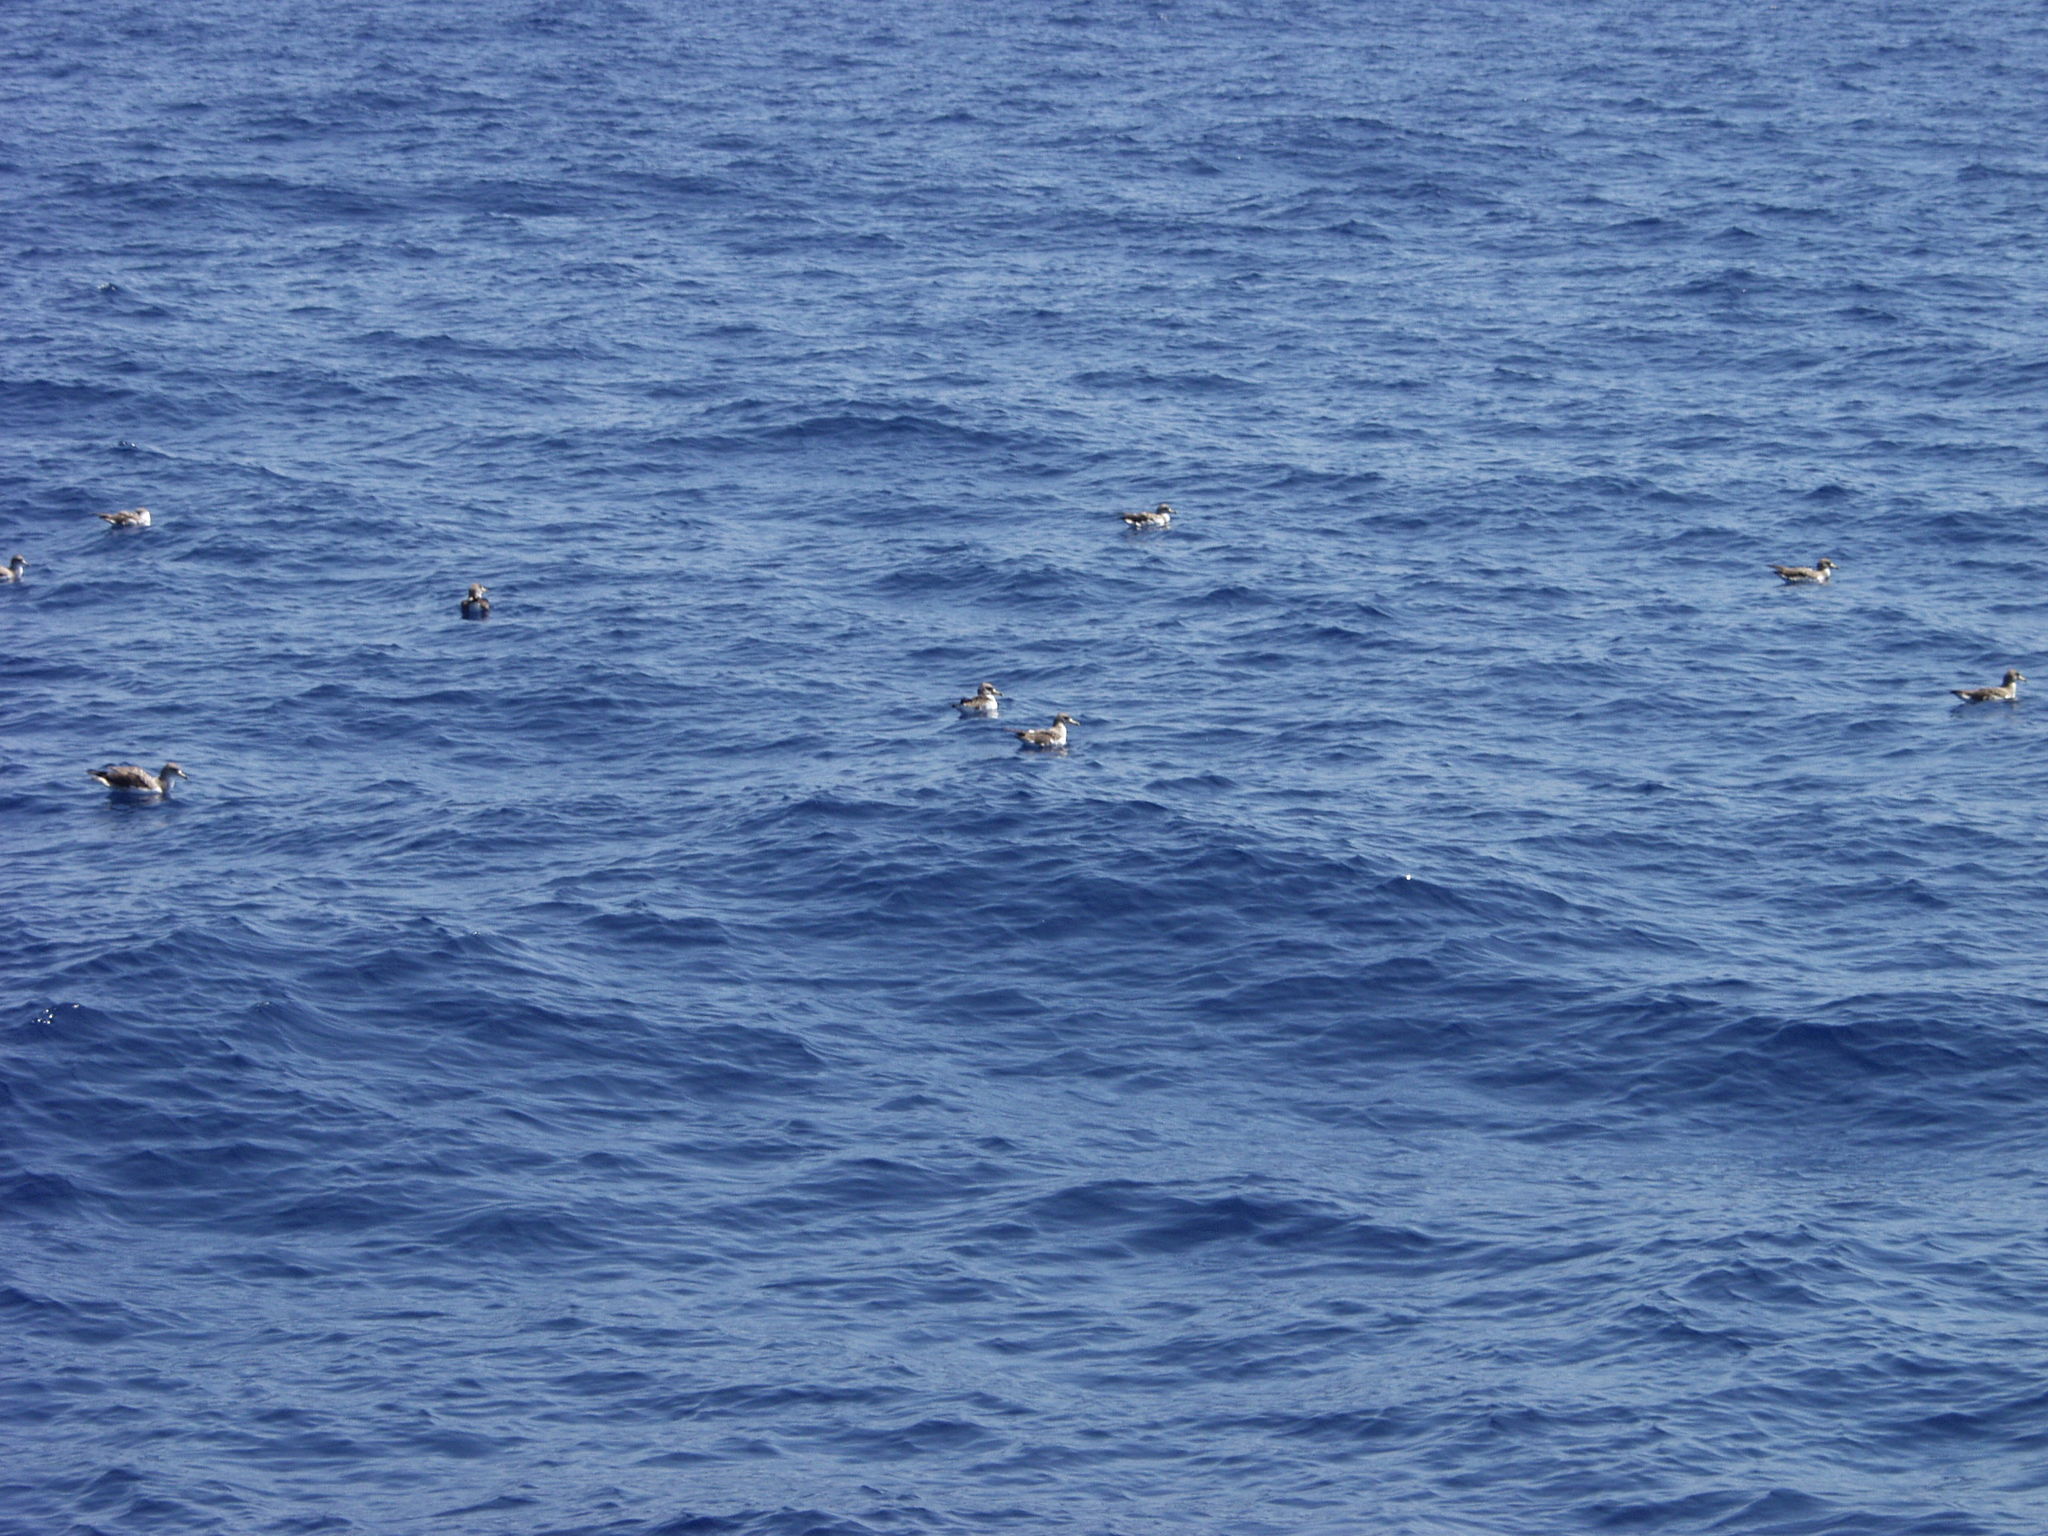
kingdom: Animalia
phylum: Chordata
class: Aves
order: Procellariiformes
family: Procellariidae
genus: Calonectris
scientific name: Calonectris diomedea
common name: Cory's shearwater
